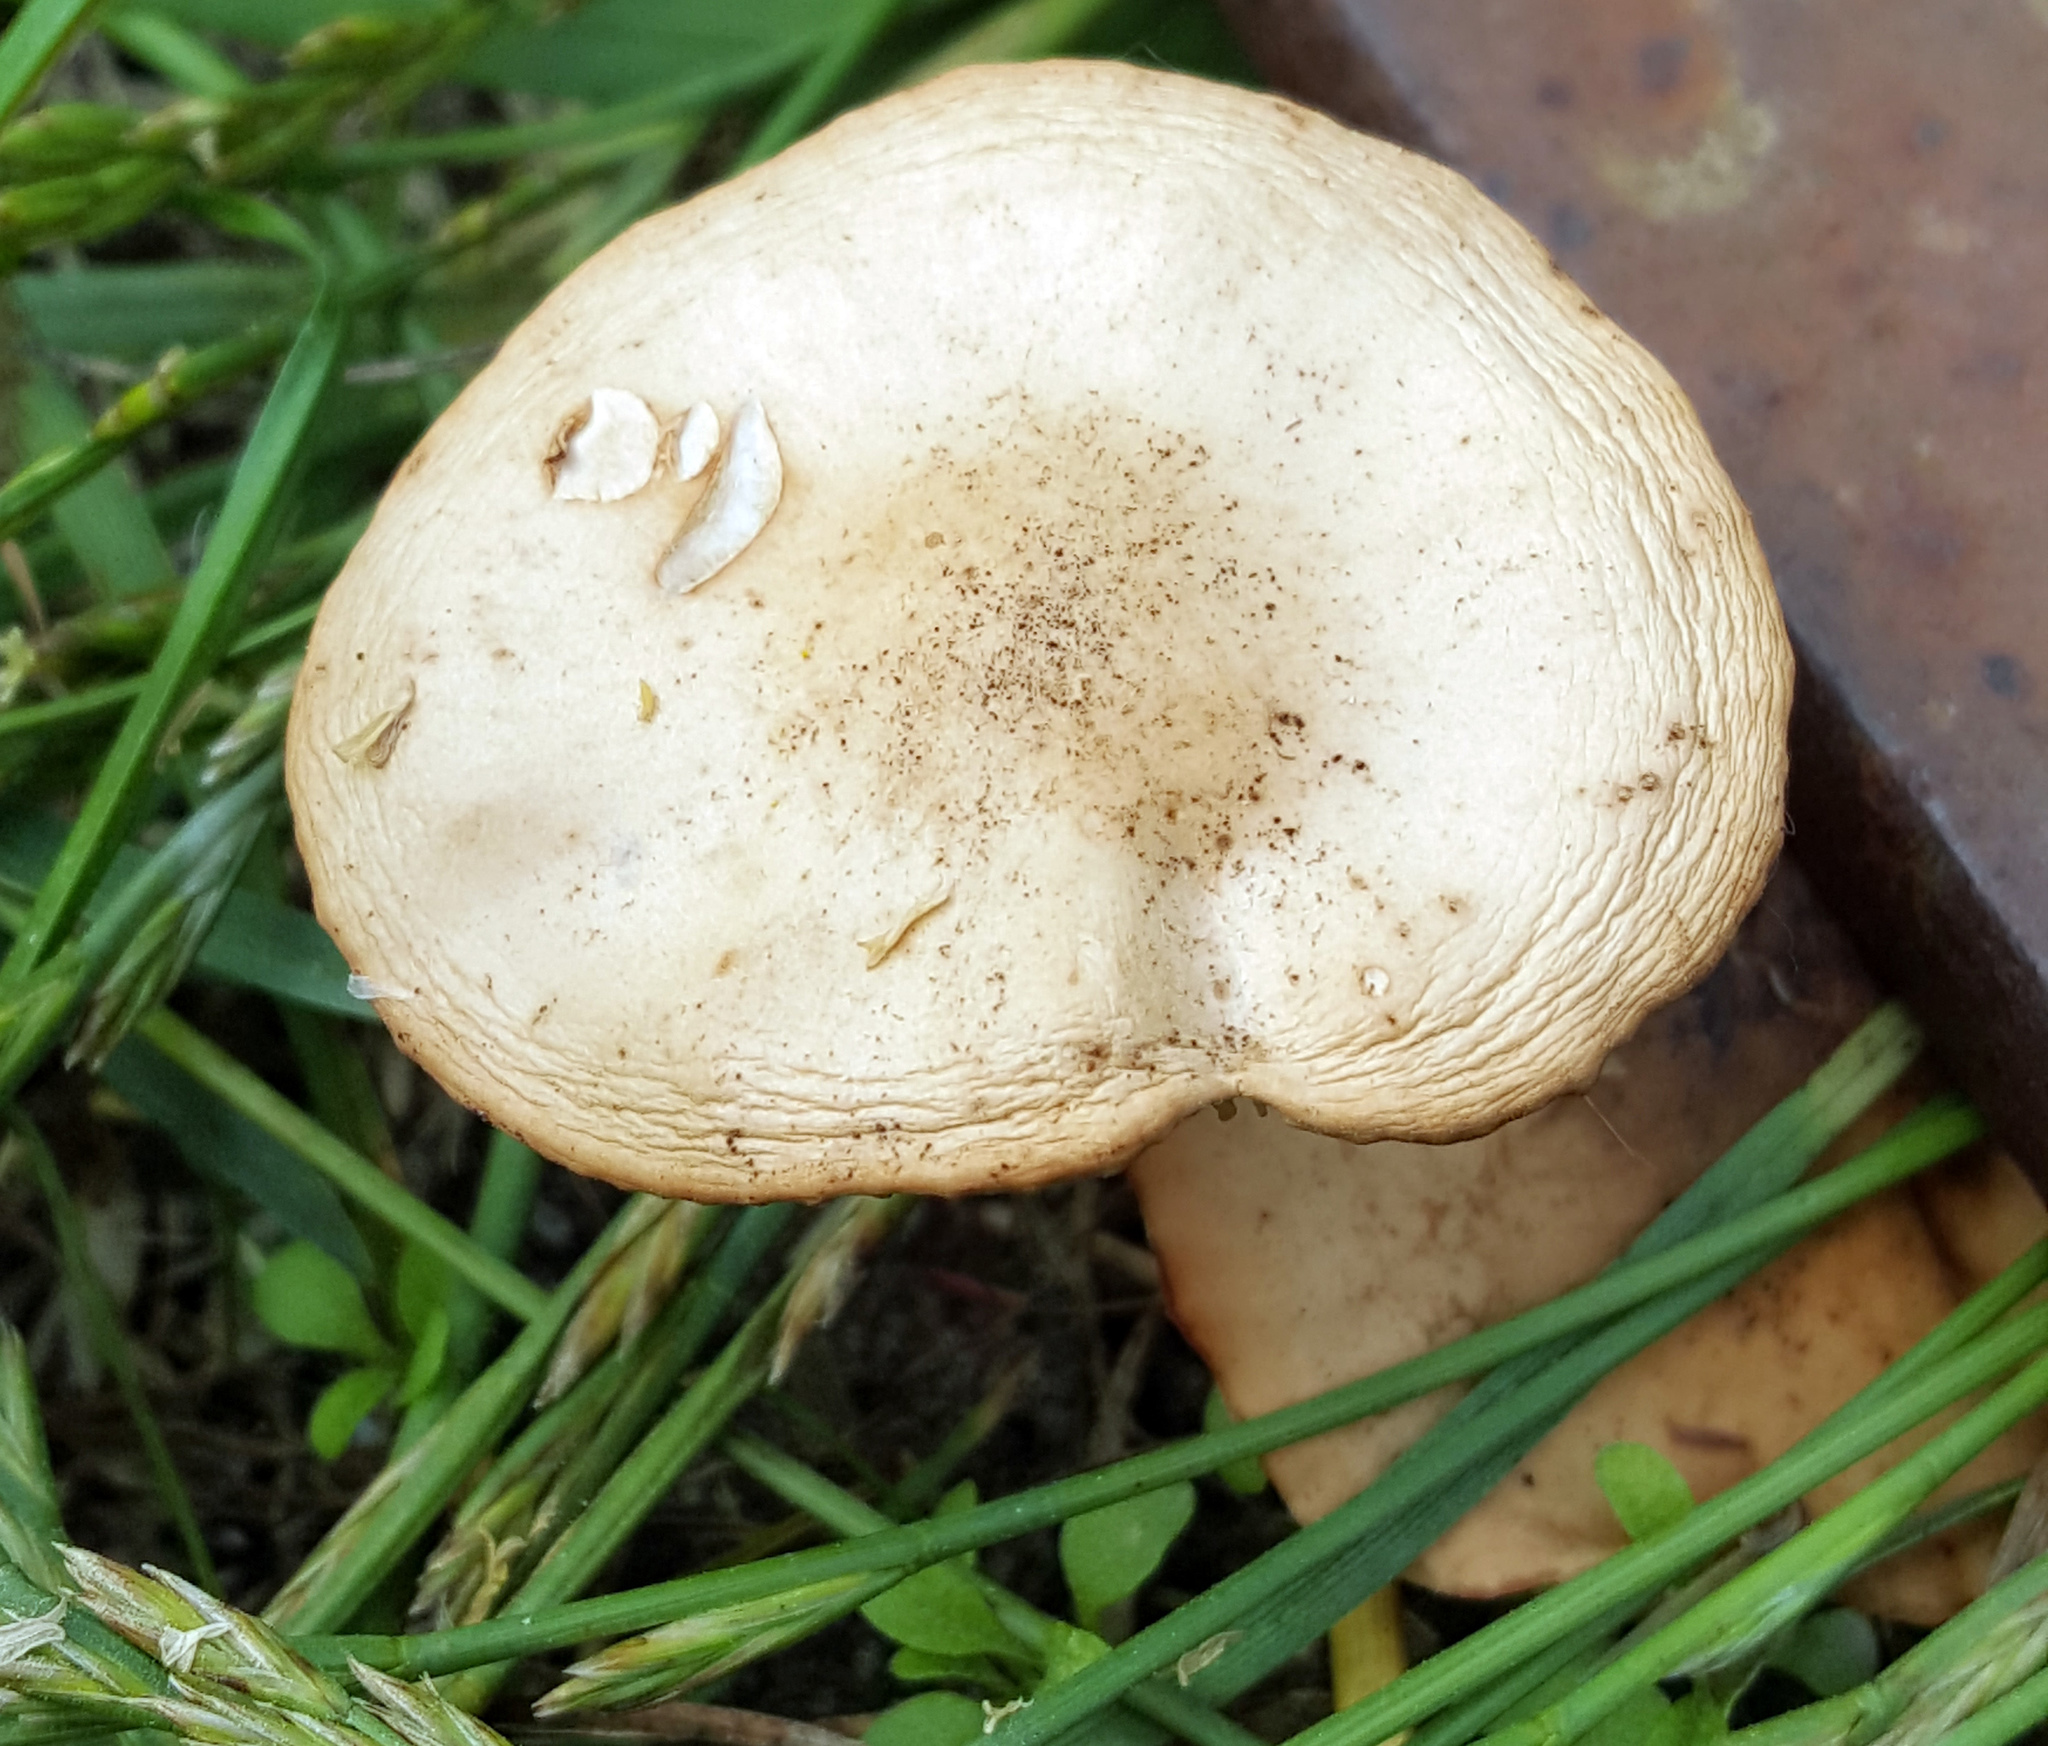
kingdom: Fungi
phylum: Basidiomycota
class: Agaricomycetes
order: Agaricales
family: Marasmiaceae
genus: Marasmius
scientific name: Marasmius oreades
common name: Fairy ring champignon
